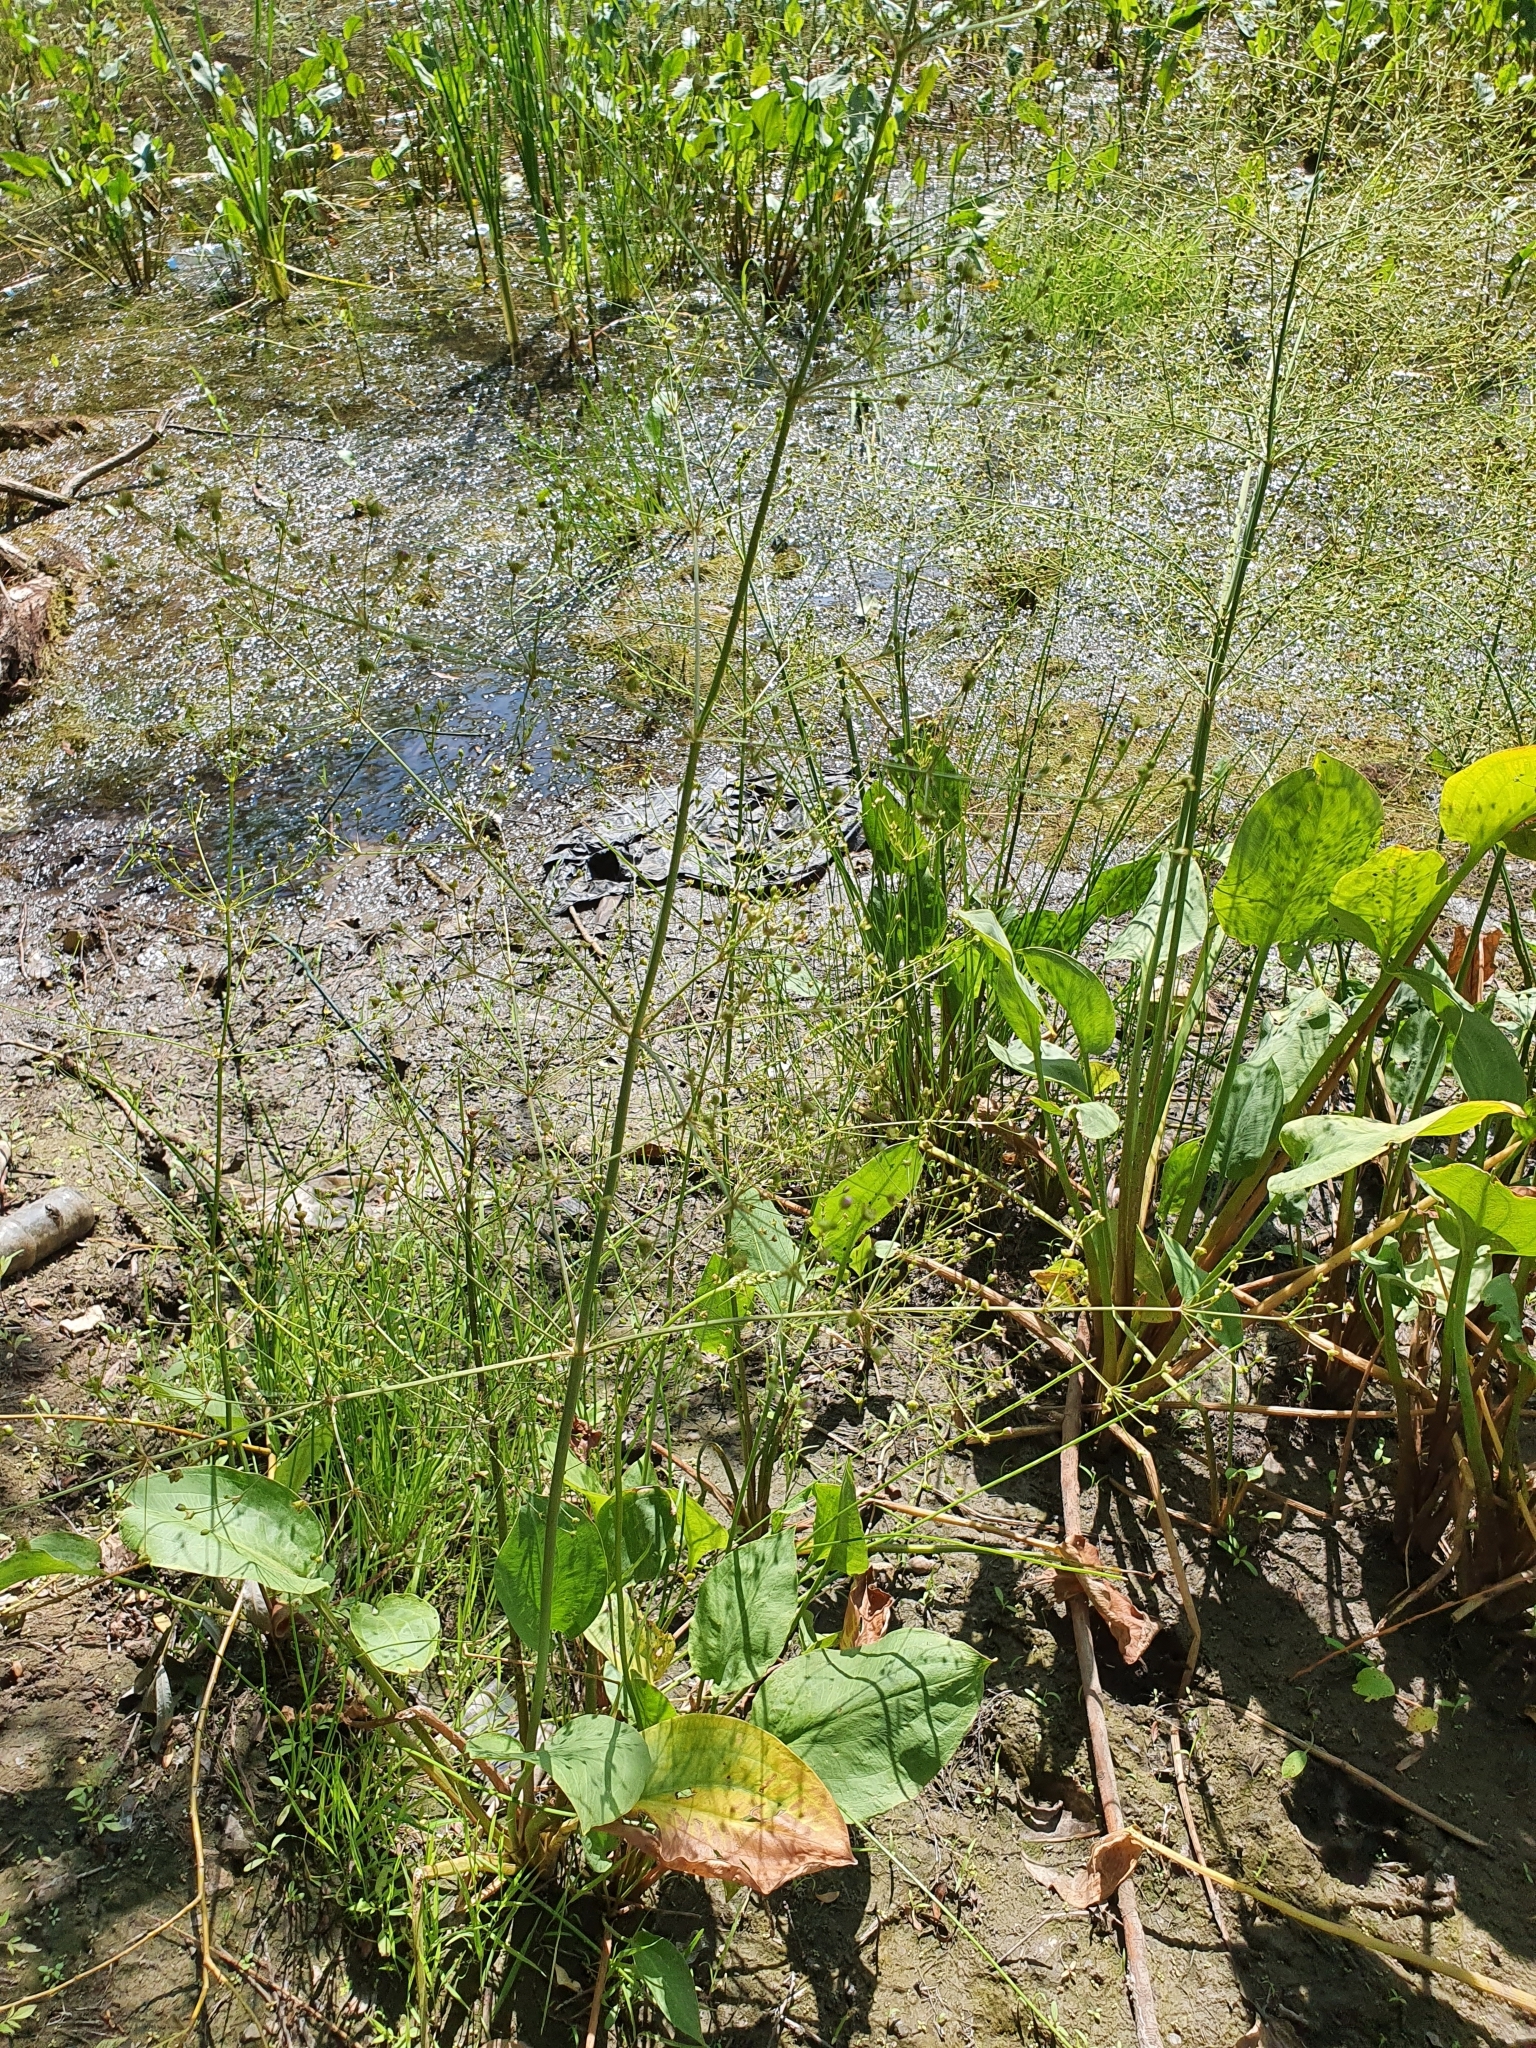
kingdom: Plantae
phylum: Tracheophyta
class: Liliopsida
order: Alismatales
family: Alismataceae
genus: Alisma
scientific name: Alisma plantago-aquatica
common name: Water-plantain
